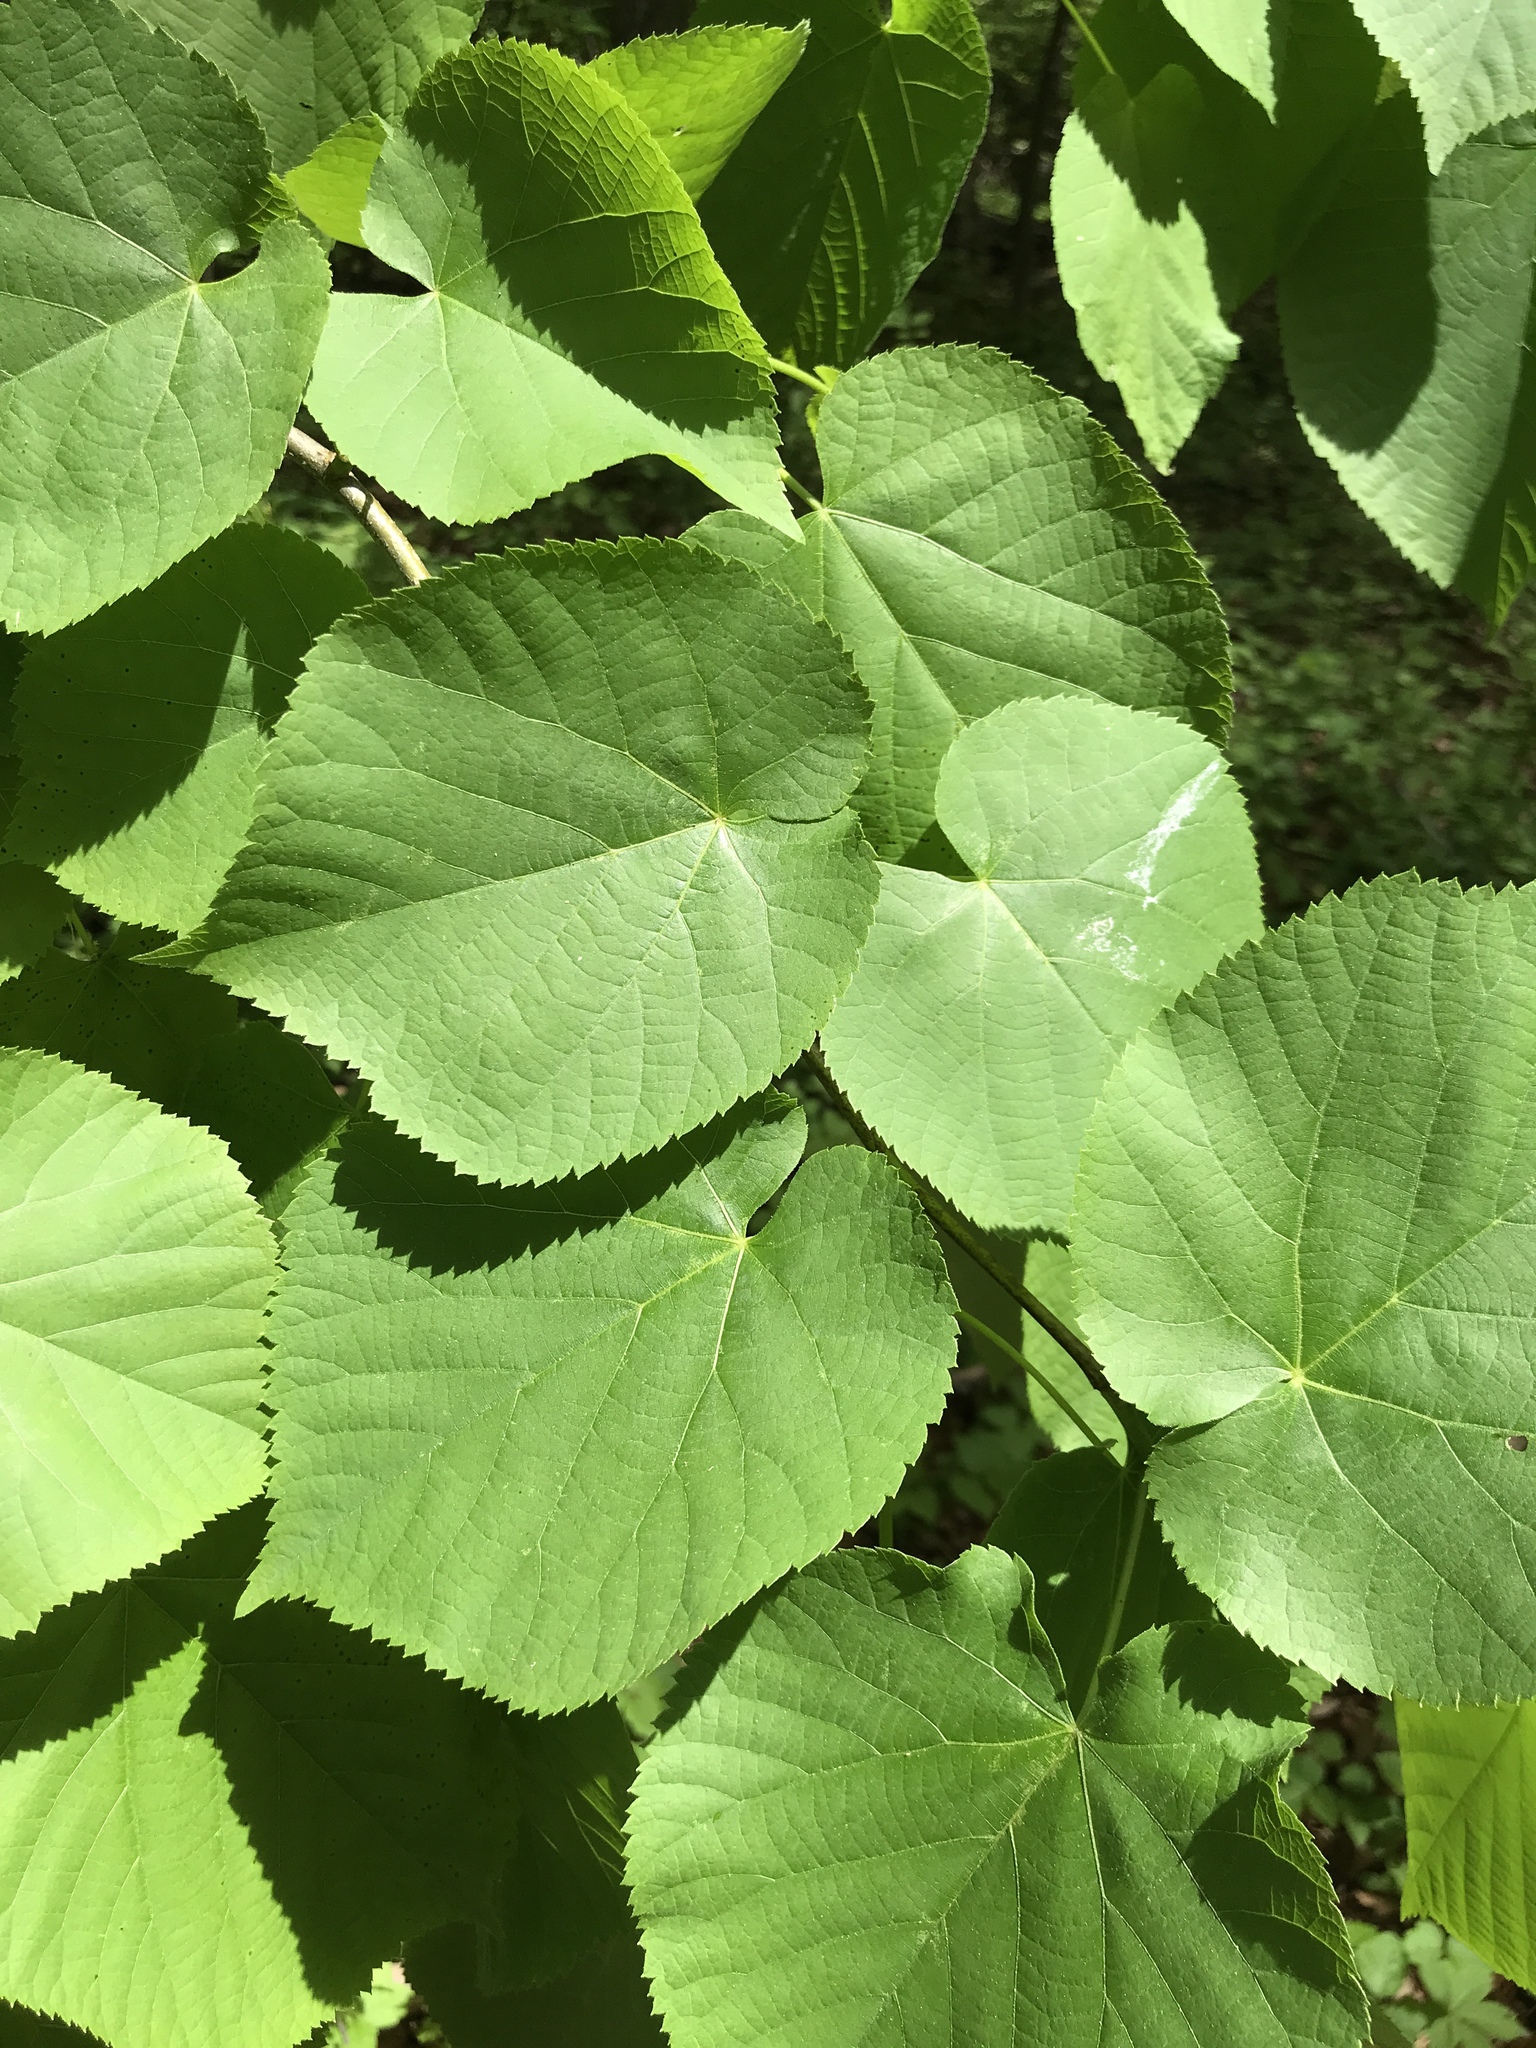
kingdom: Plantae
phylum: Tracheophyta
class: Magnoliopsida
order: Malvales
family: Malvaceae
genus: Tilia
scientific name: Tilia americana
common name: Basswood
